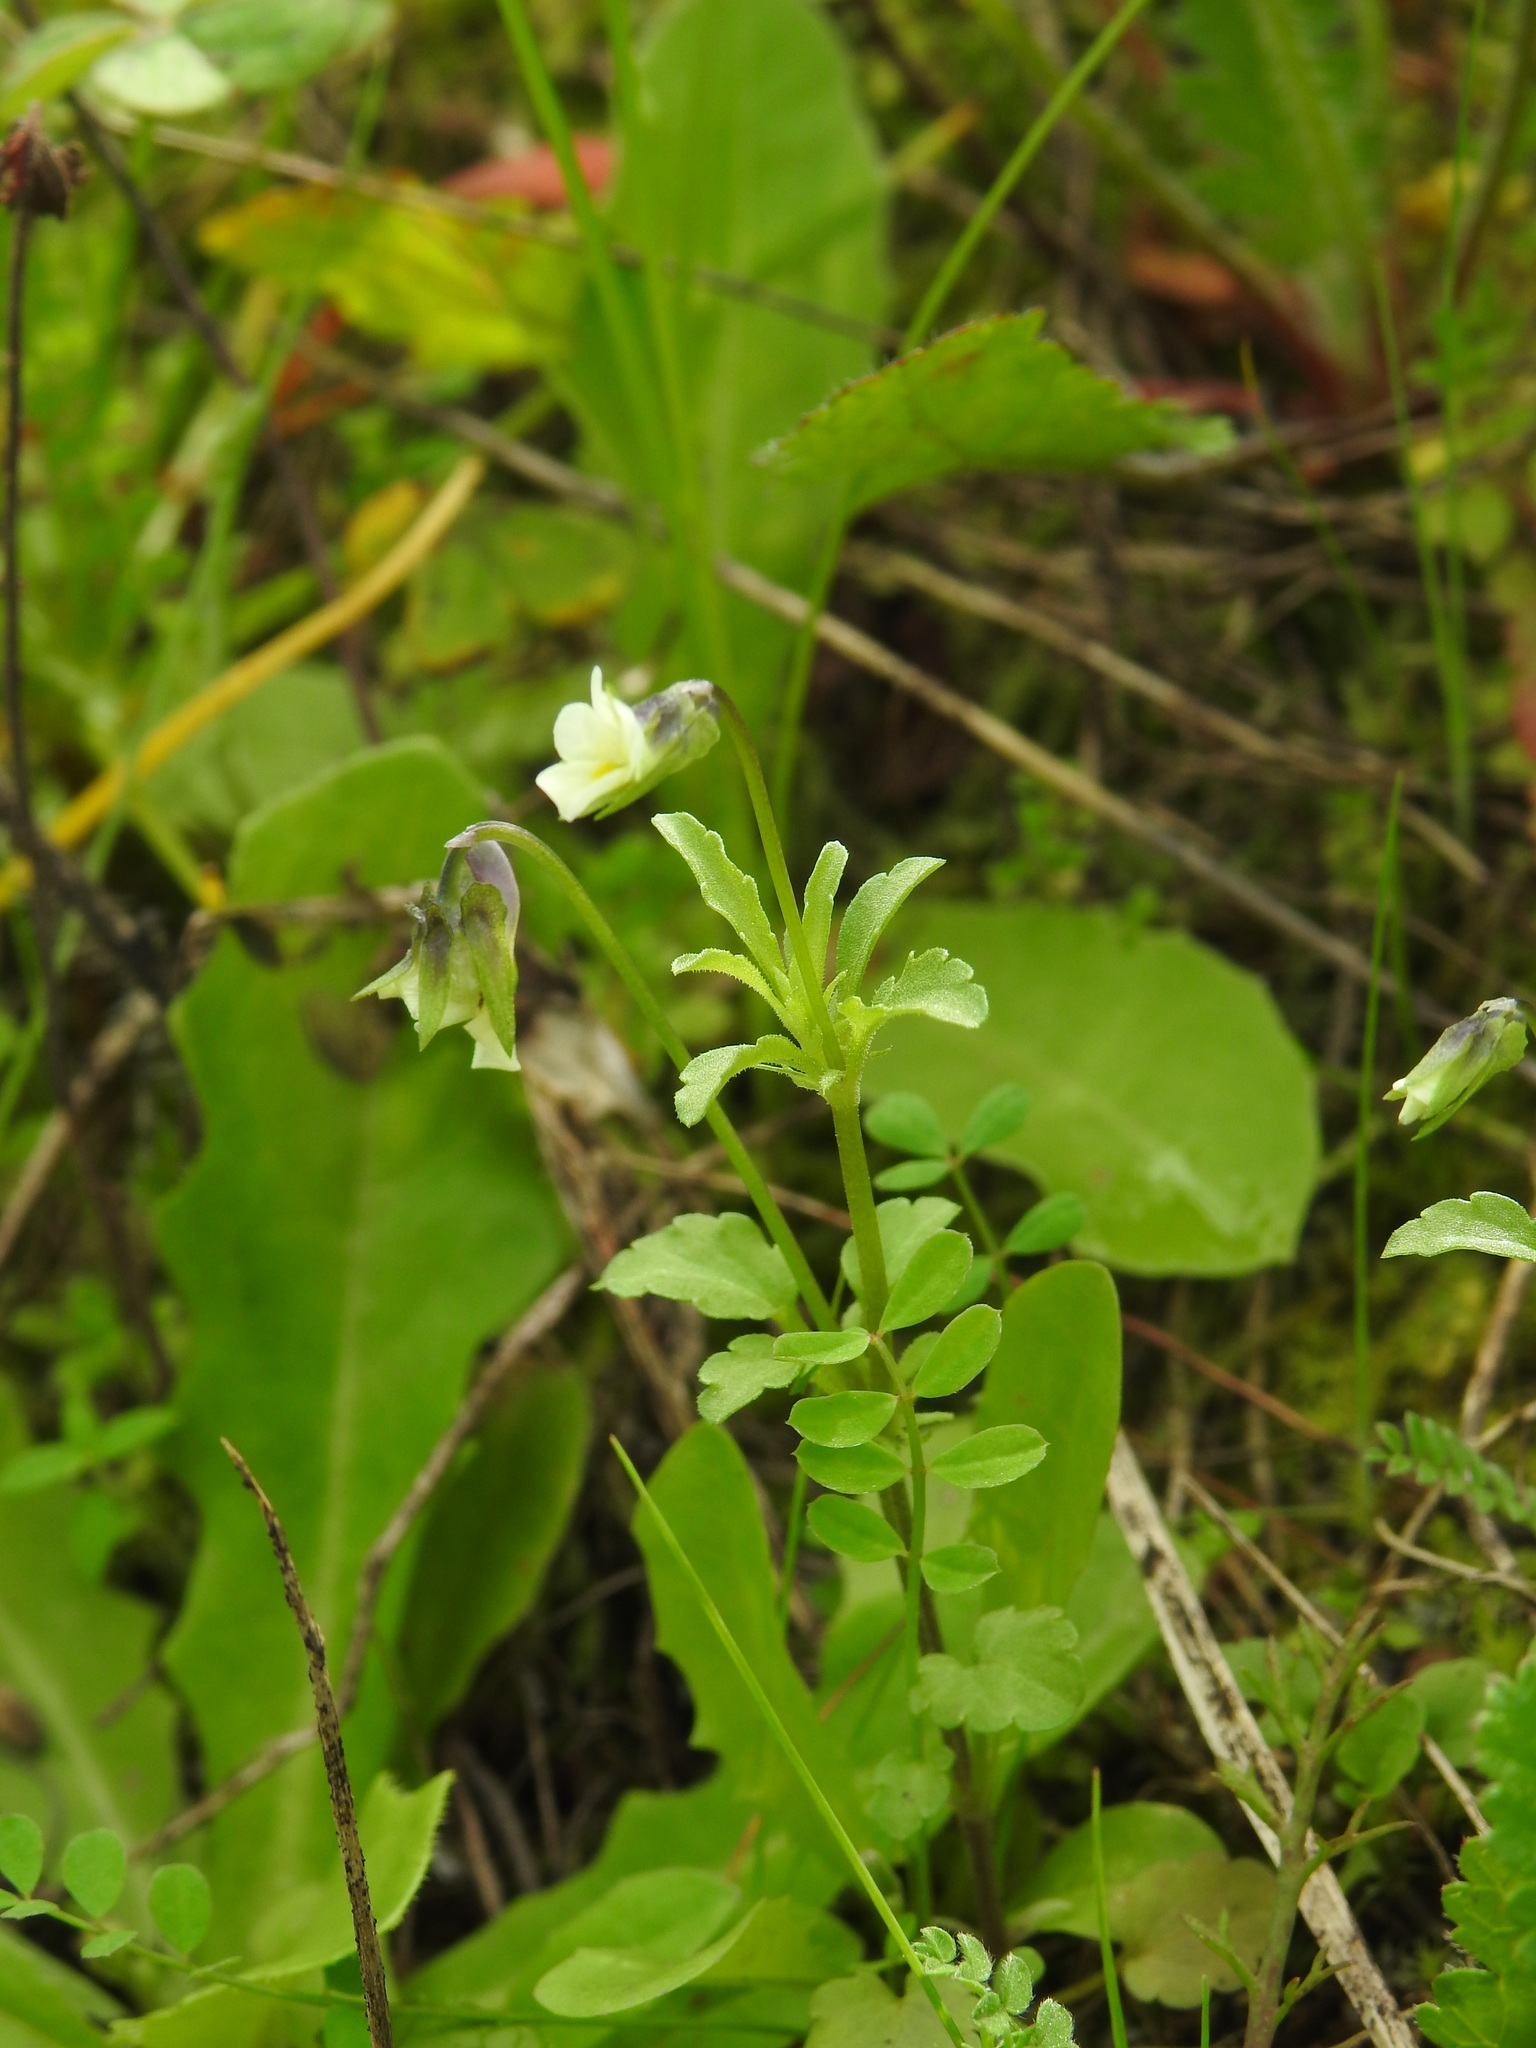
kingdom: Plantae
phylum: Tracheophyta
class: Magnoliopsida
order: Malpighiales
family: Violaceae
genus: Viola
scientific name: Viola kitaibeliana
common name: Dwarf pansy
